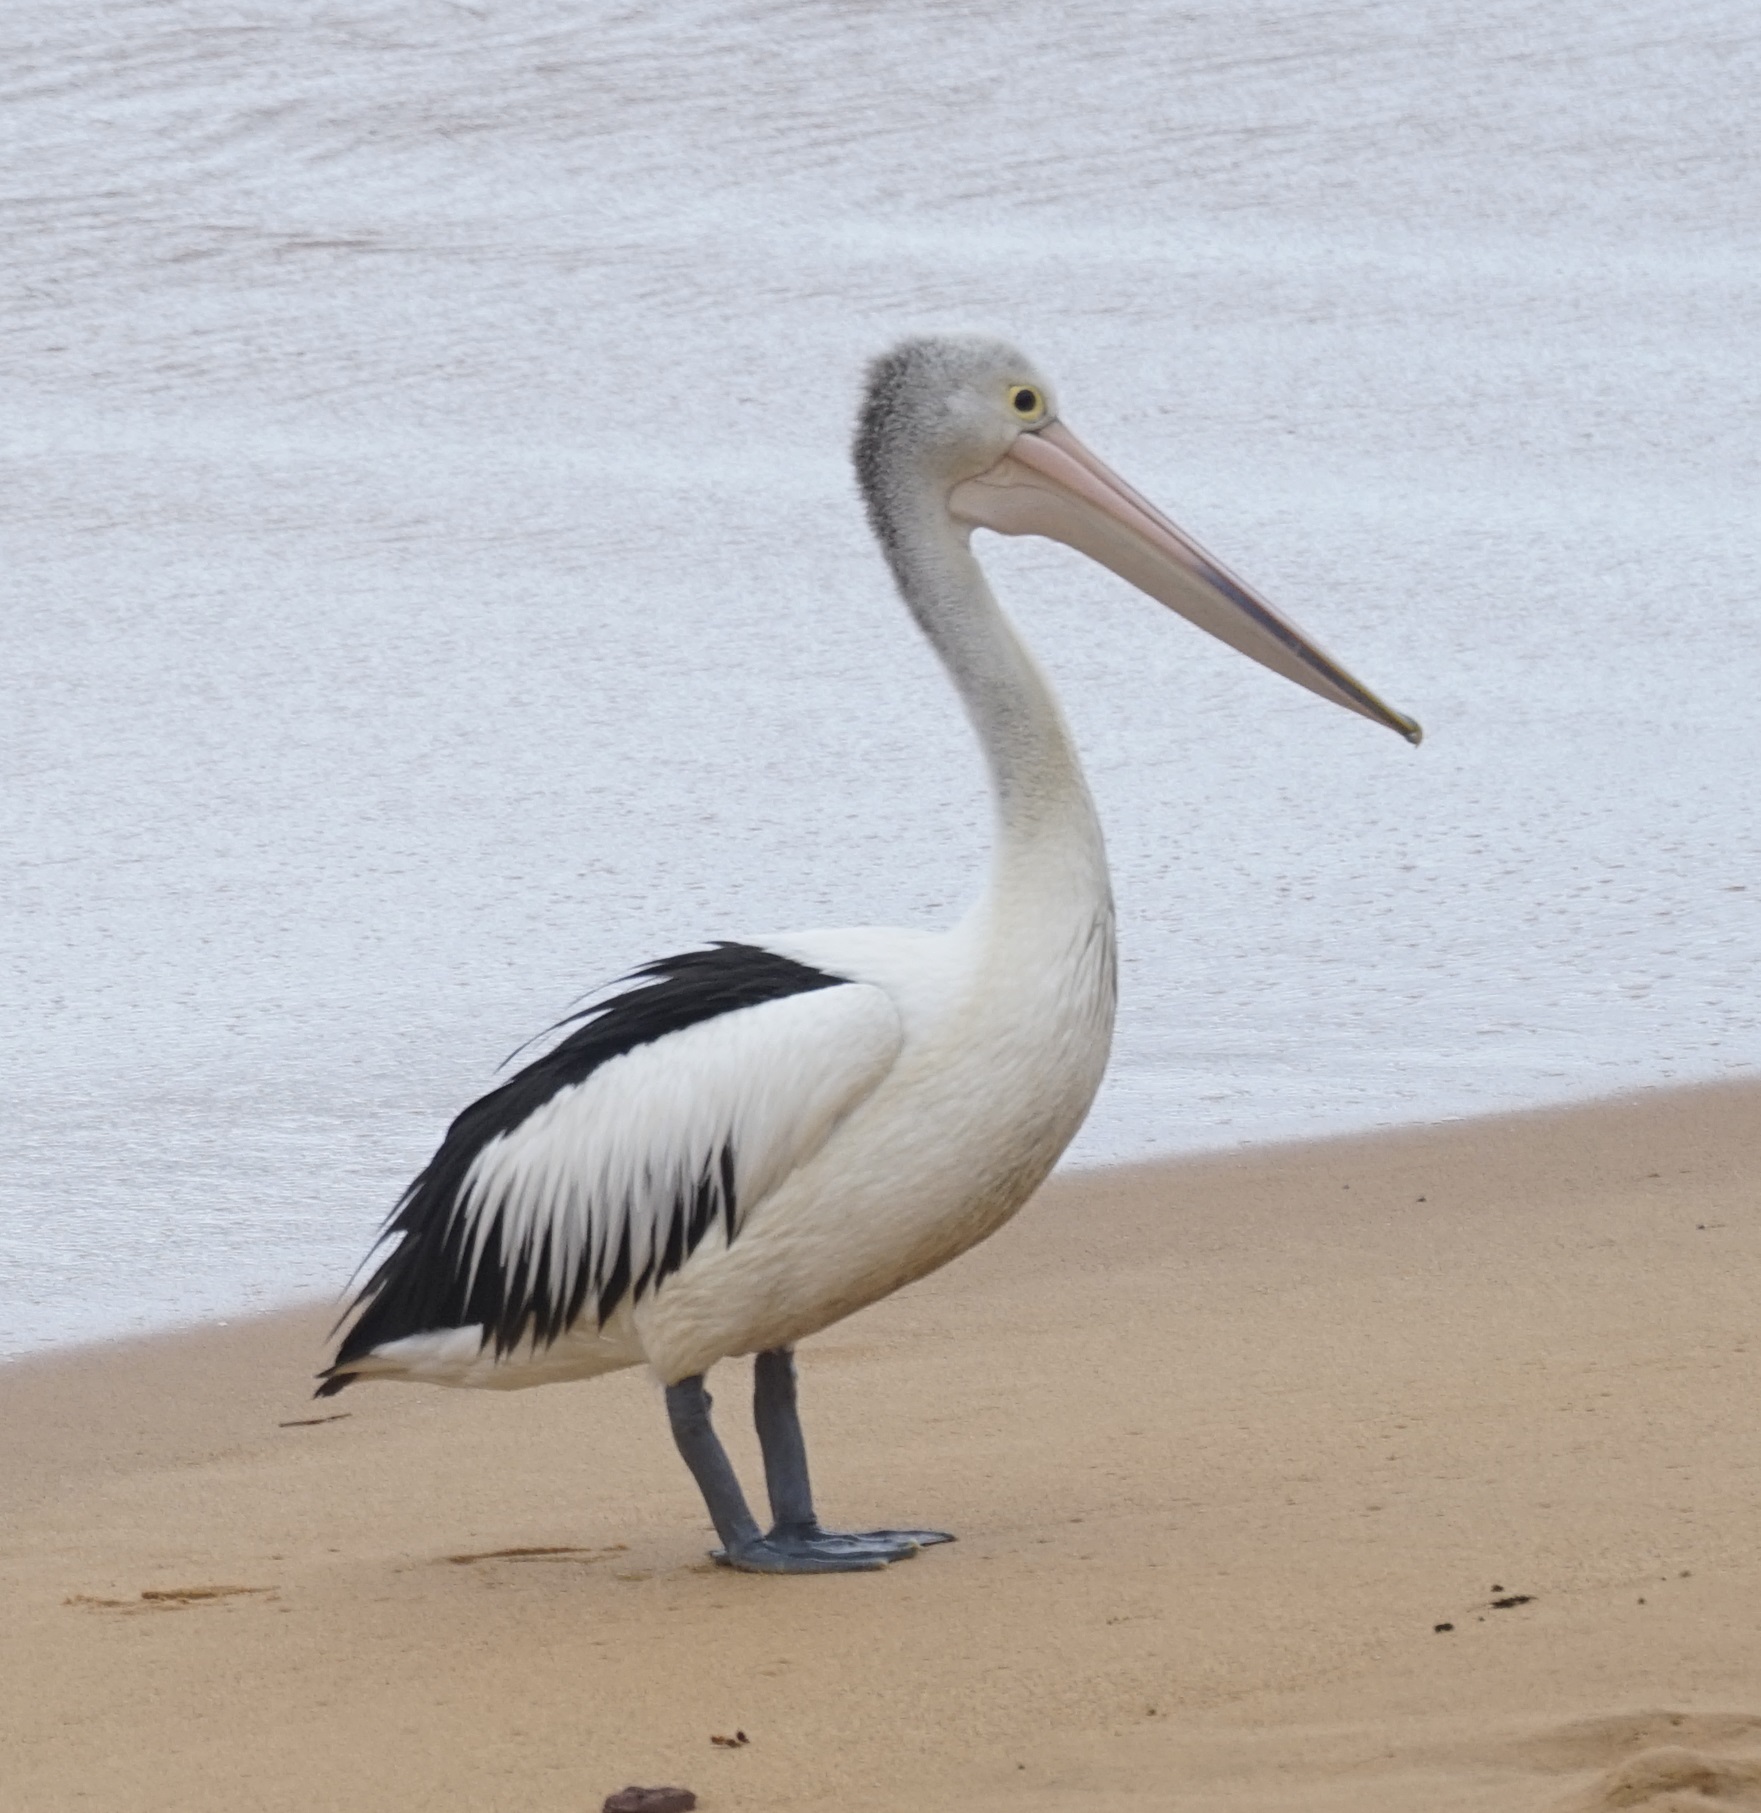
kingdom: Animalia
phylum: Chordata
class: Aves
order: Pelecaniformes
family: Pelecanidae
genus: Pelecanus
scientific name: Pelecanus conspicillatus
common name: Australian pelican
